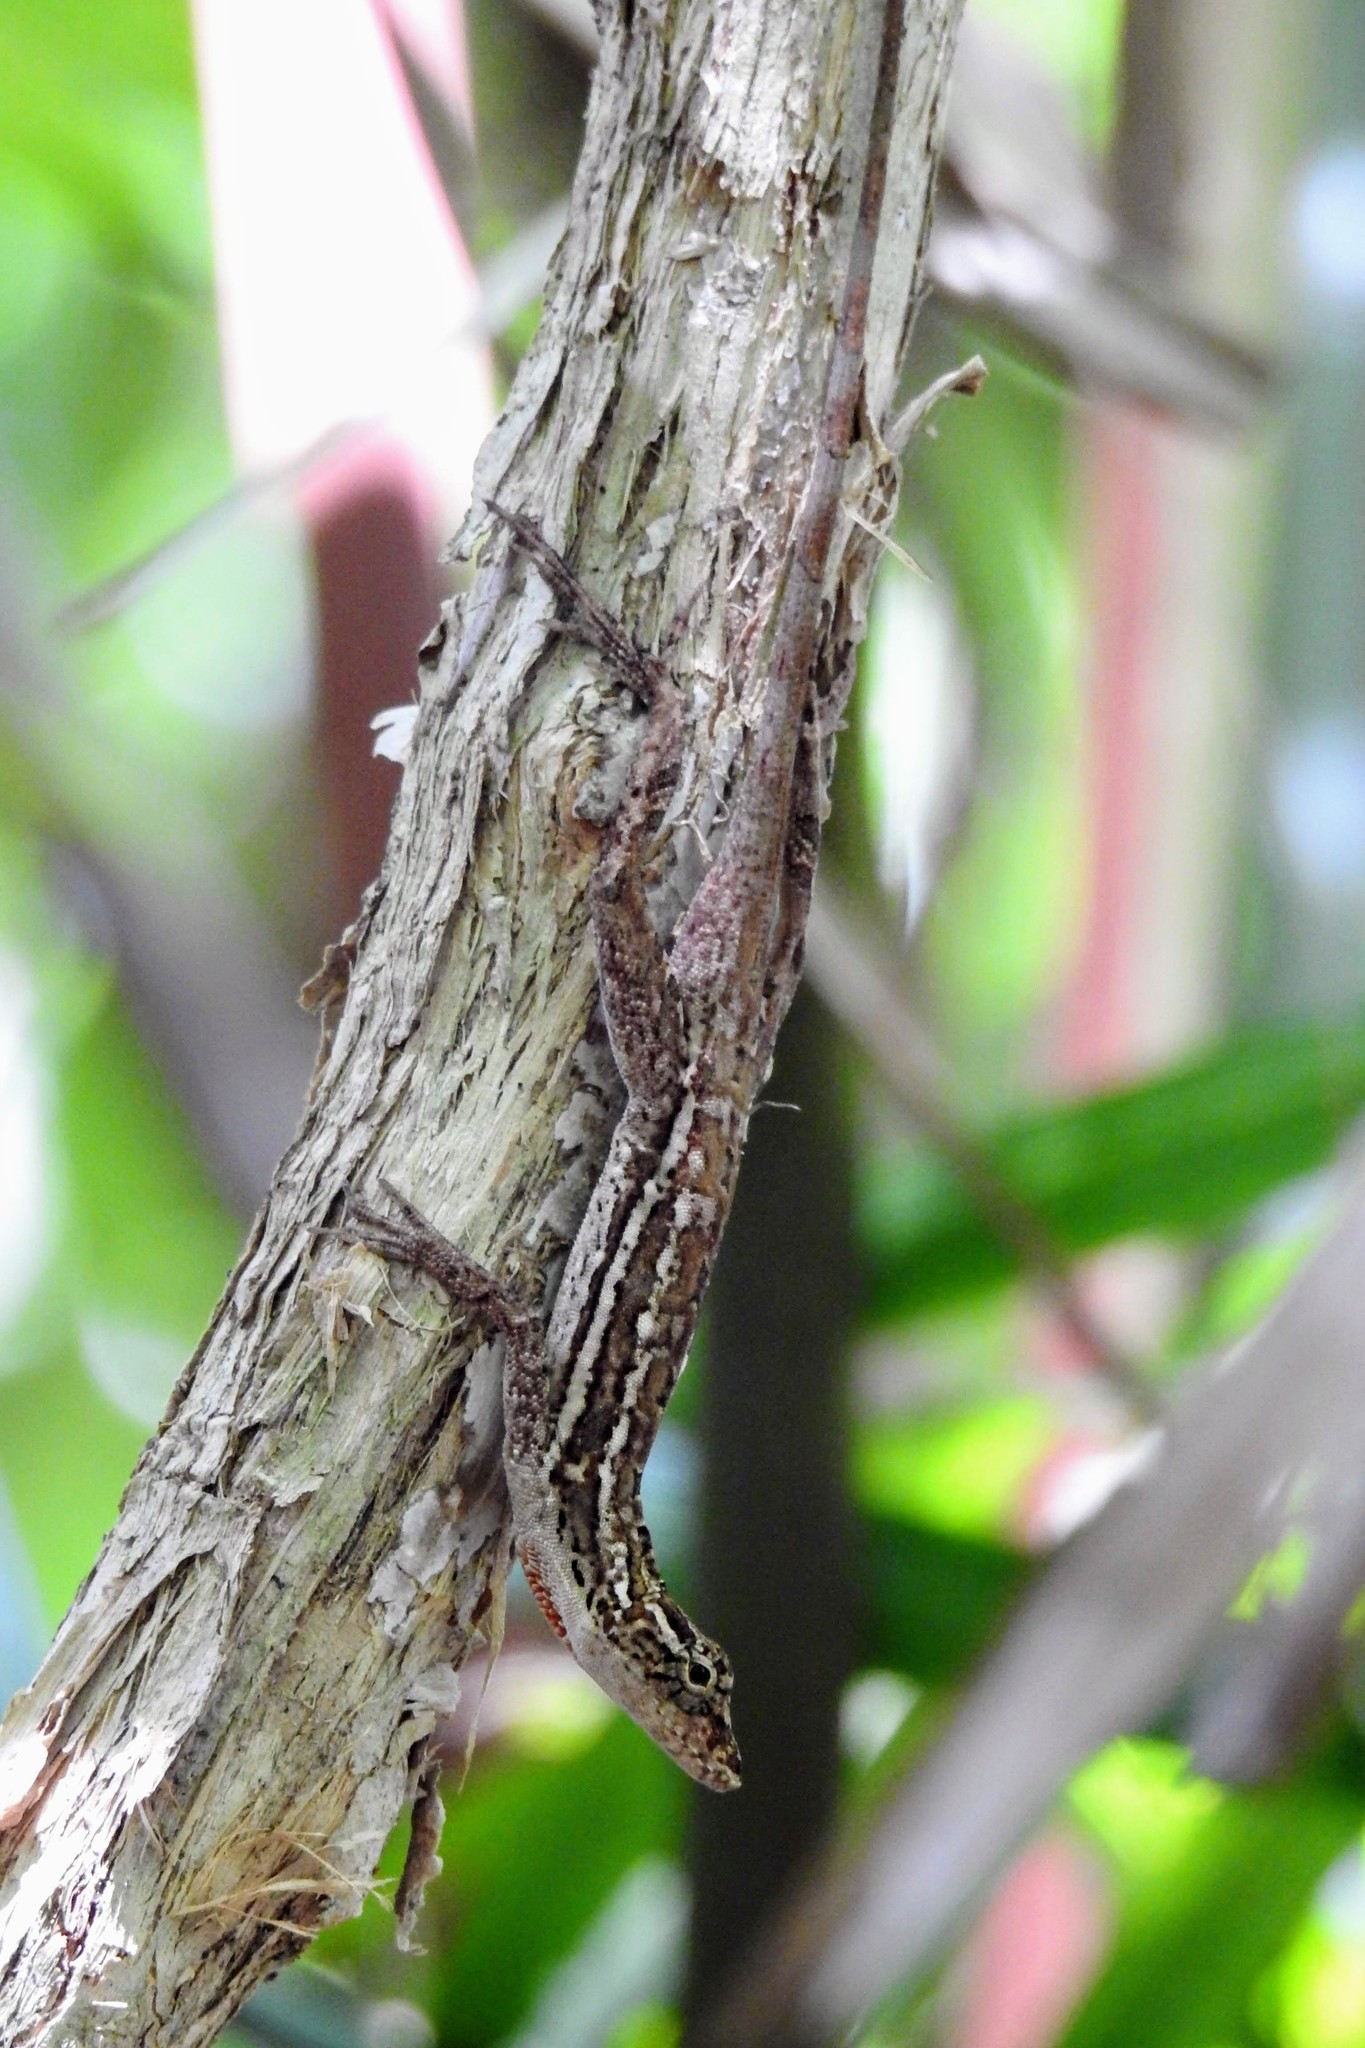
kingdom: Animalia
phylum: Chordata
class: Squamata
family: Dactyloidae
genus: Anolis
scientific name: Anolis lemurinus
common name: Ghost anole
